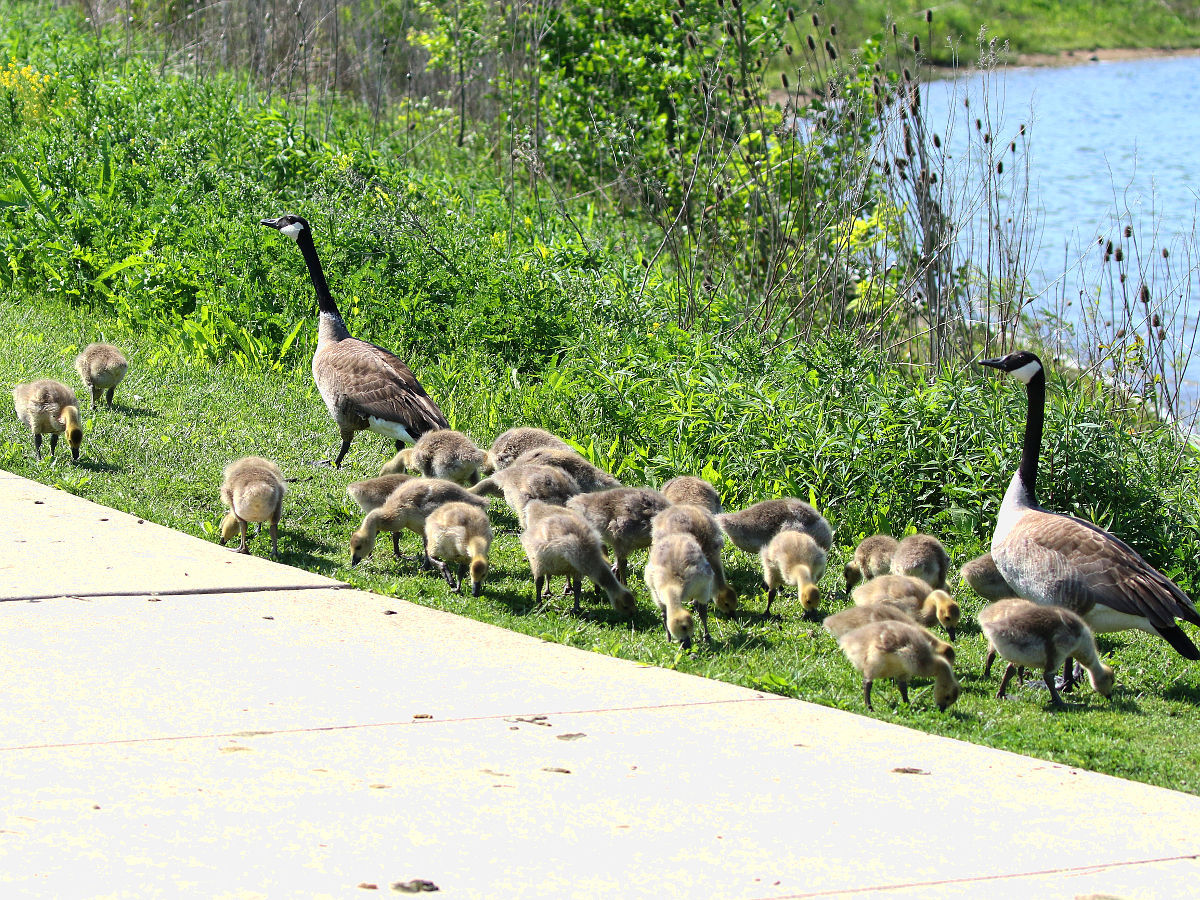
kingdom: Animalia
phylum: Chordata
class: Aves
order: Anseriformes
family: Anatidae
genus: Branta
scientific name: Branta canadensis
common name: Canada goose
